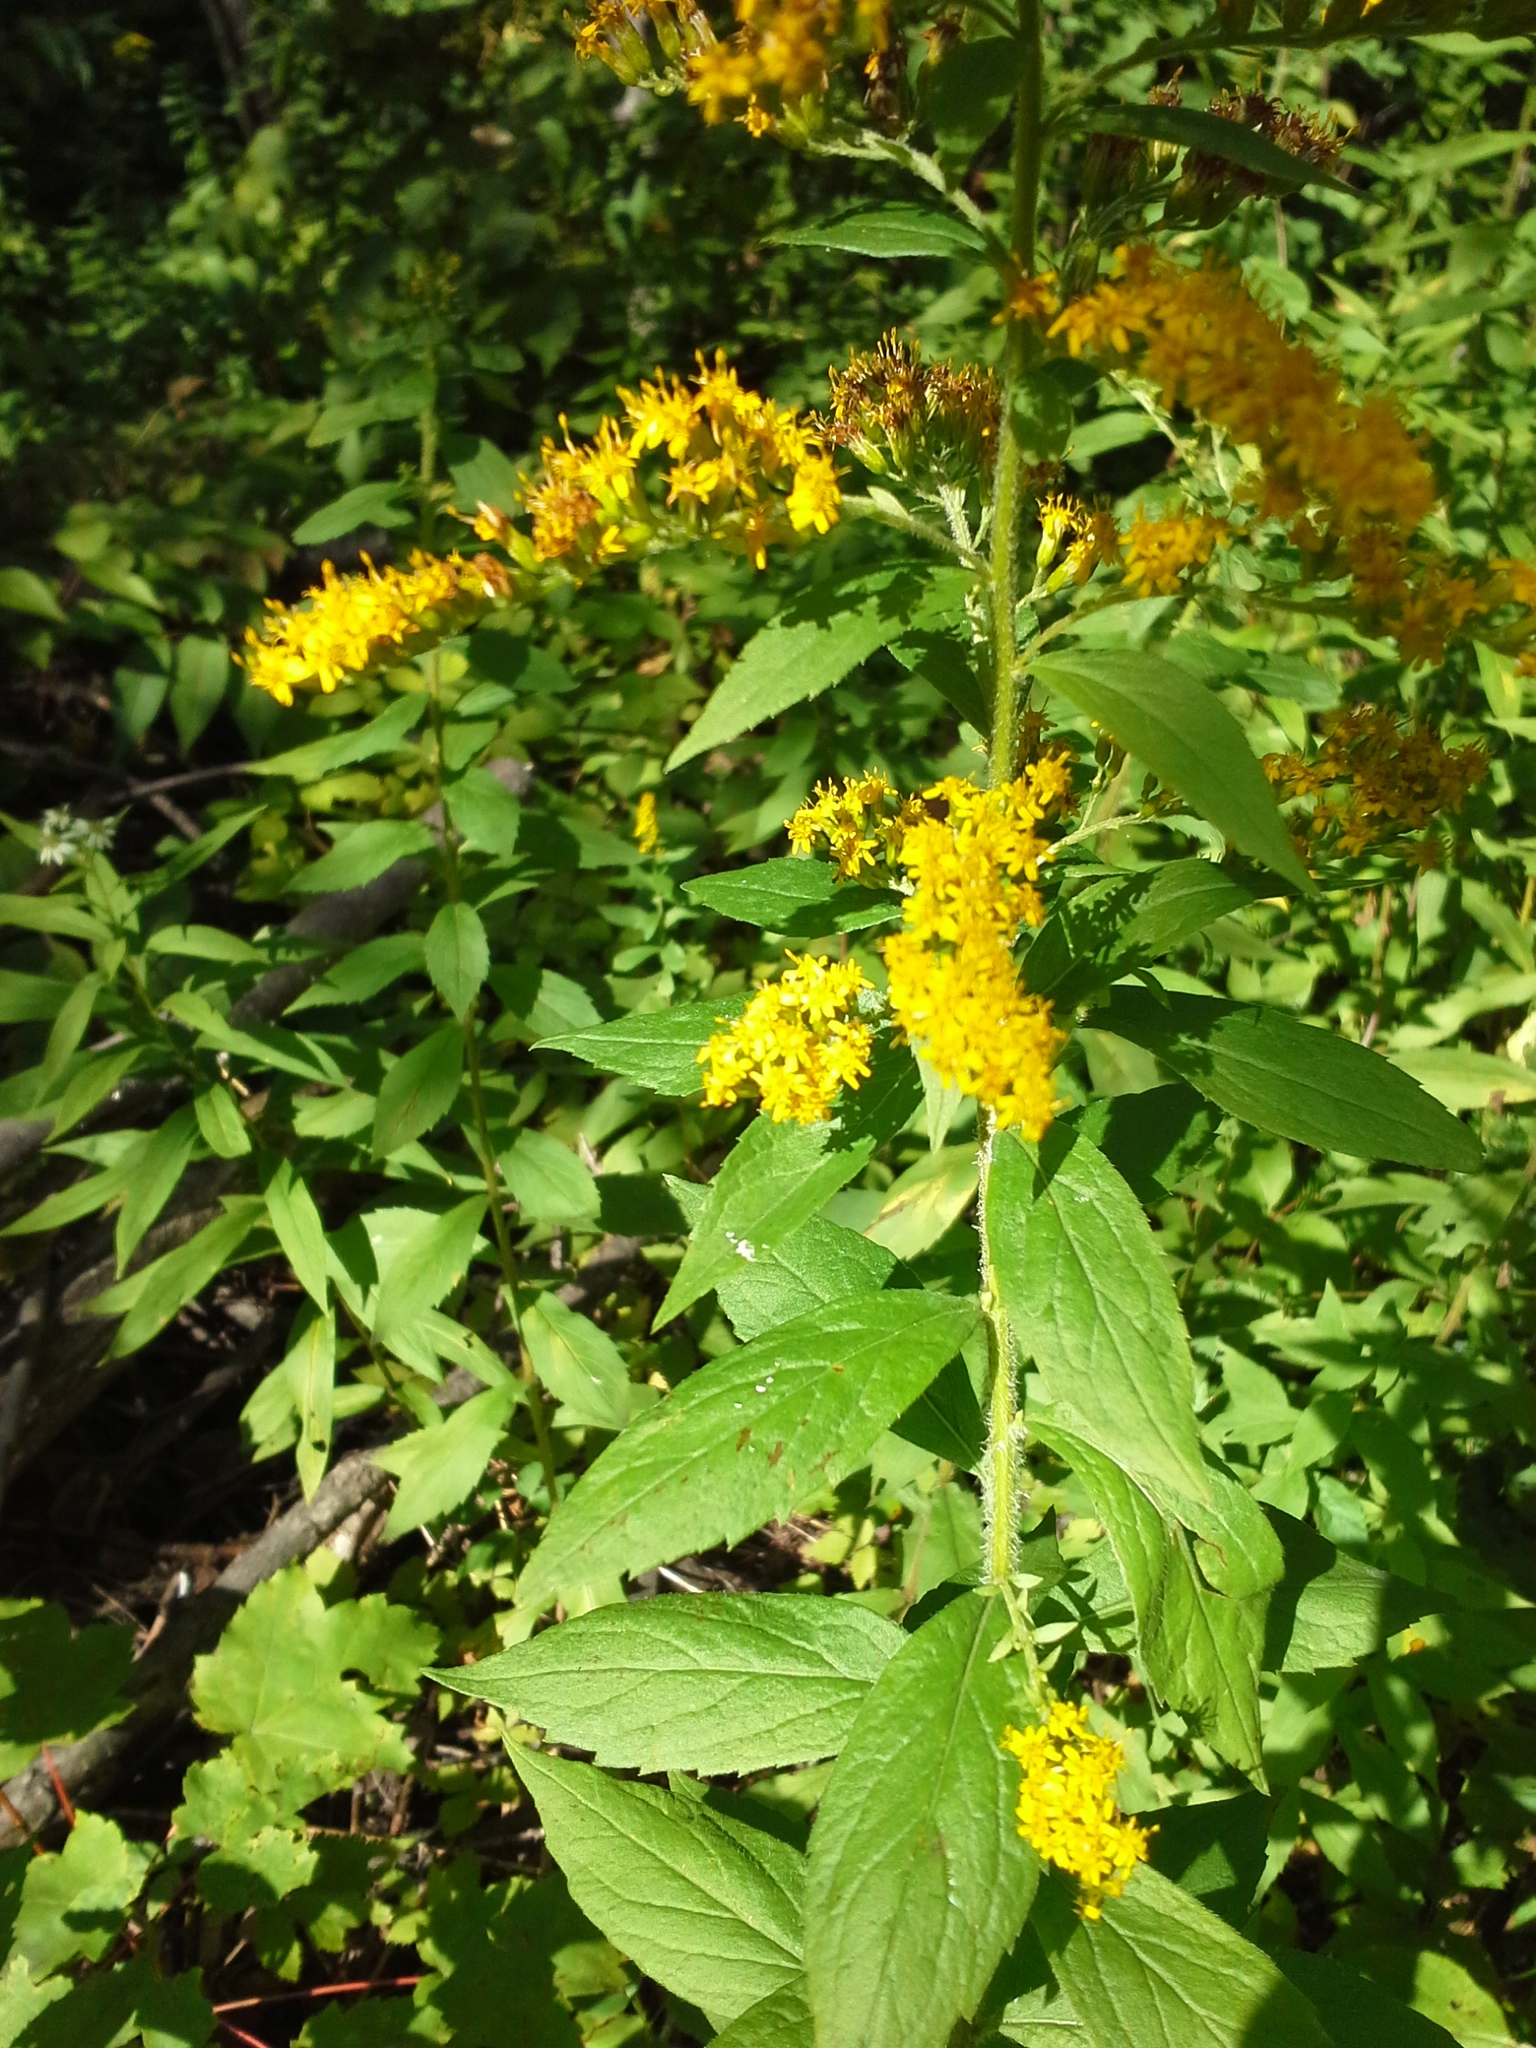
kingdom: Plantae
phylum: Tracheophyta
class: Magnoliopsida
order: Asterales
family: Asteraceae
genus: Solidago
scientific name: Solidago rugosa
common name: Rough-stemmed goldenrod
